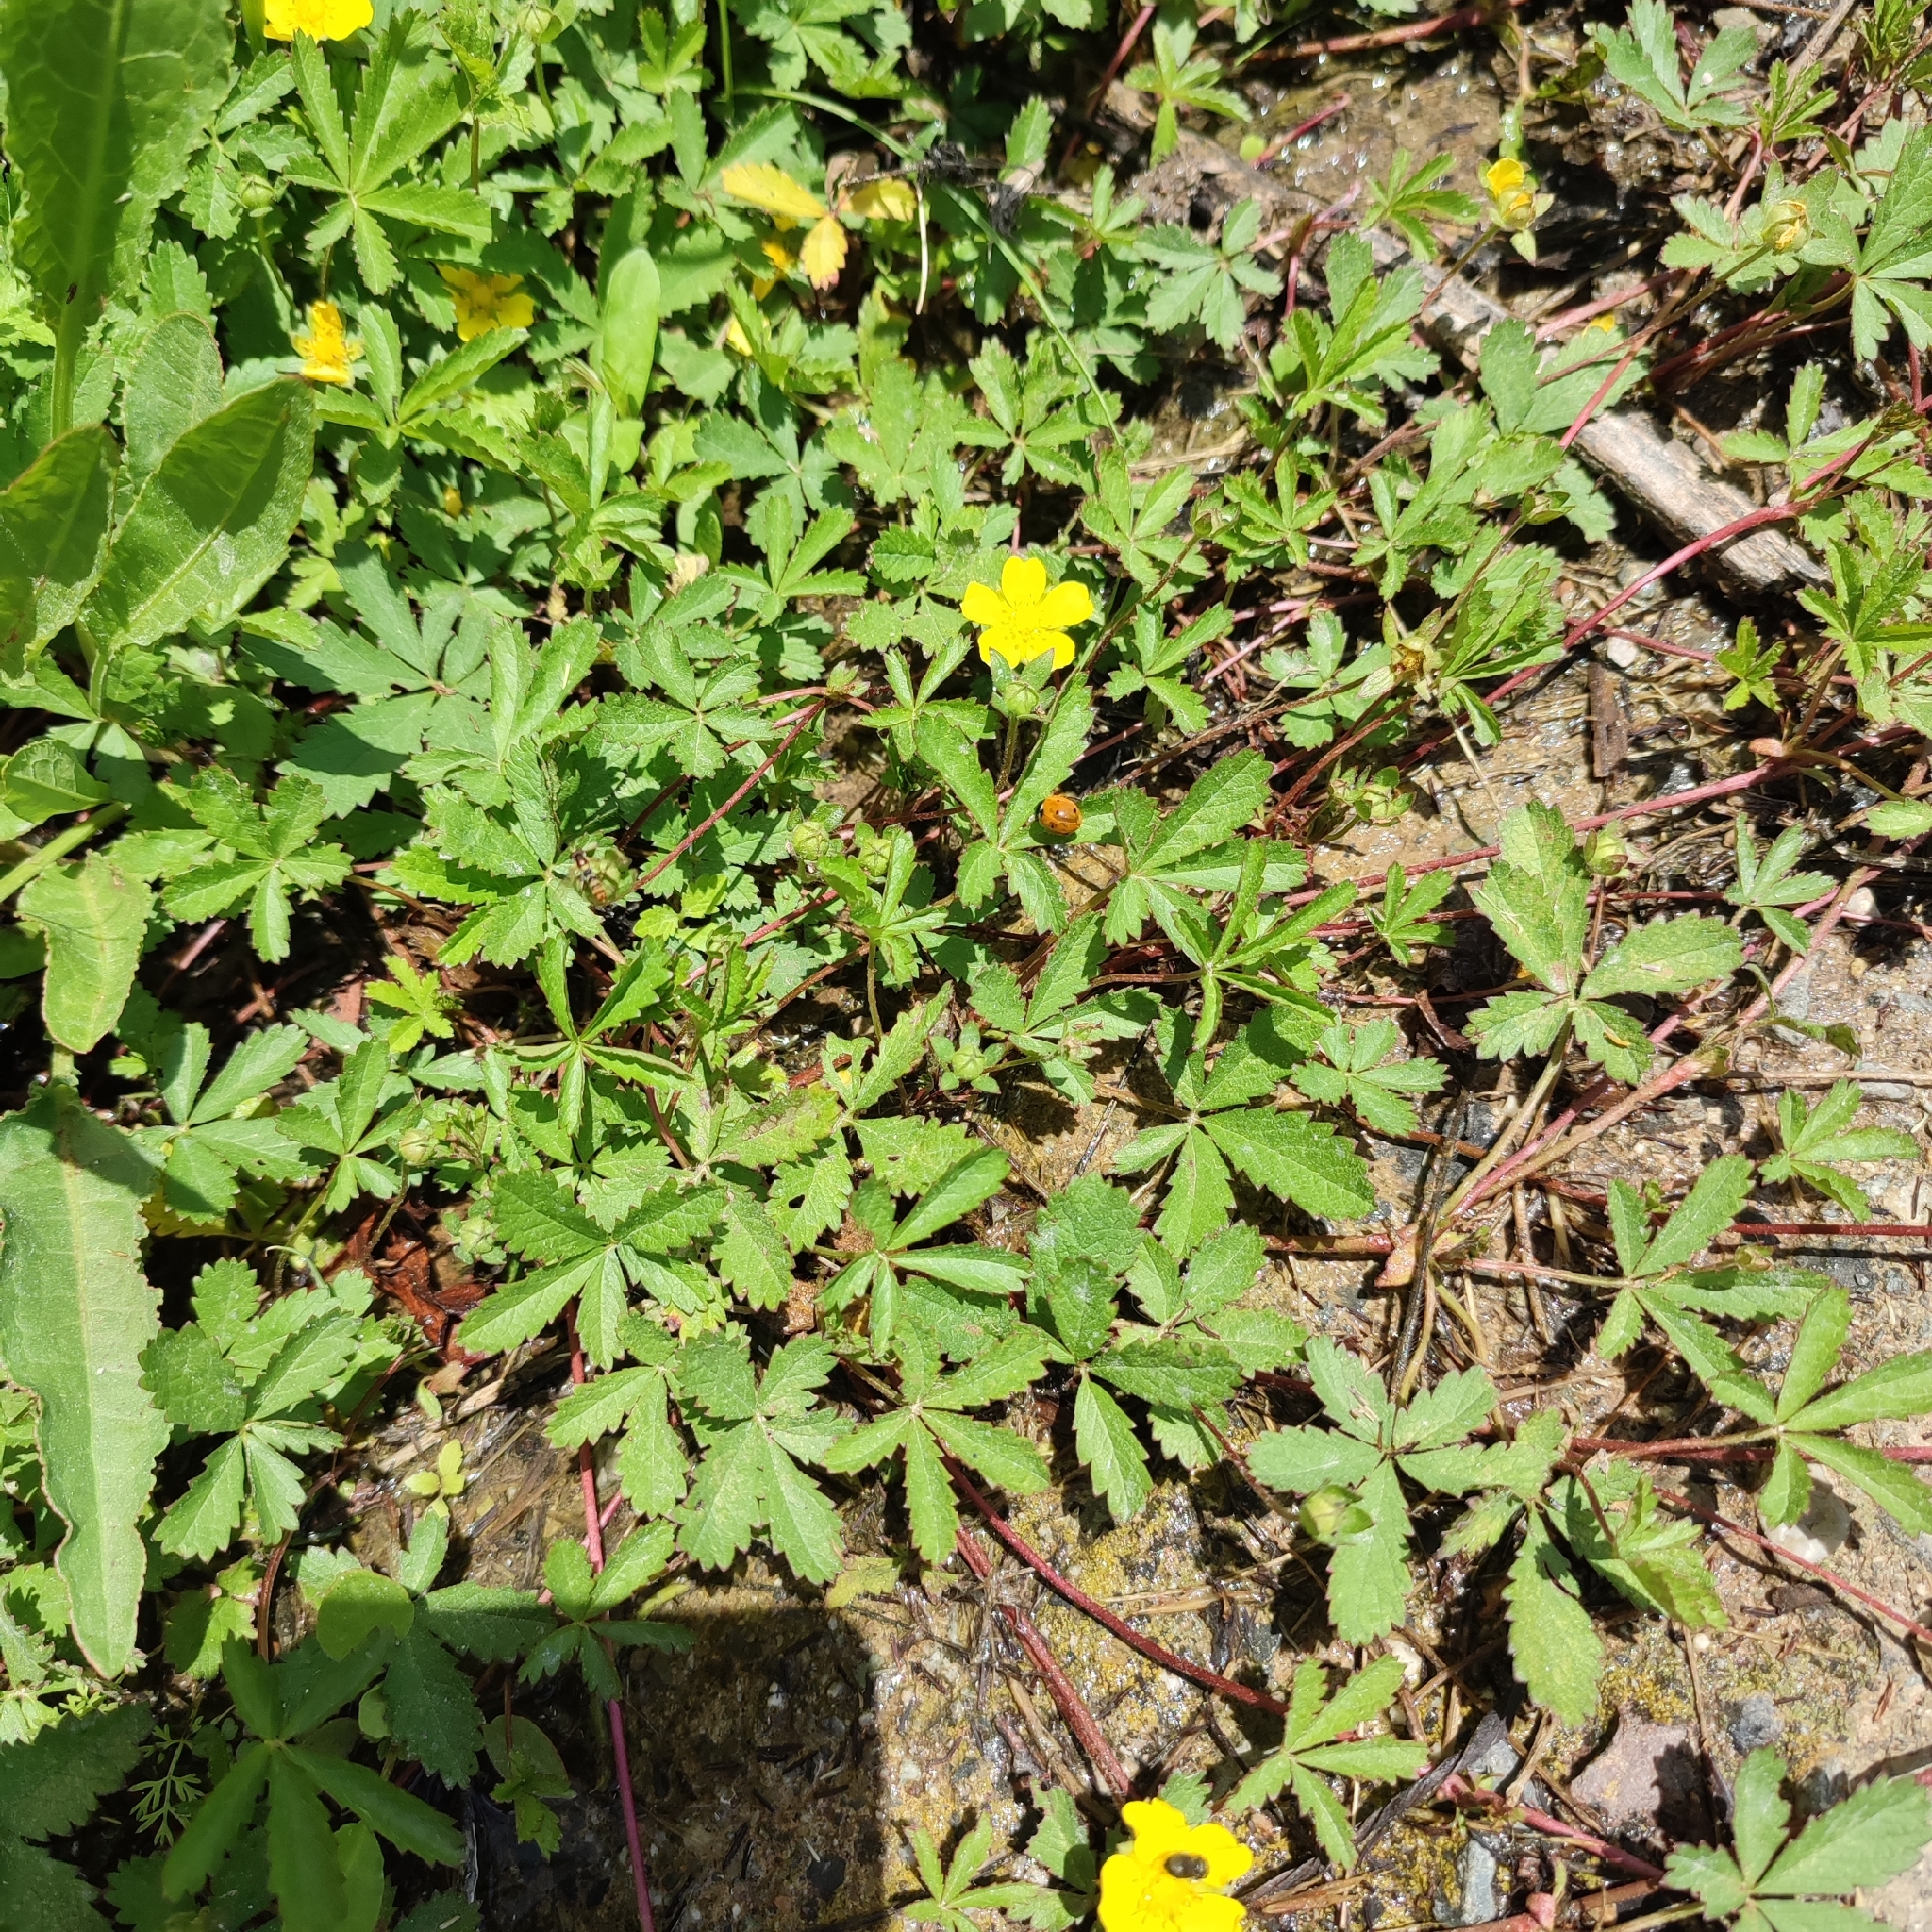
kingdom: Plantae
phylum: Tracheophyta
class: Magnoliopsida
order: Rosales
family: Rosaceae
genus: Potentilla
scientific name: Potentilla reptans
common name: Creeping cinquefoil
